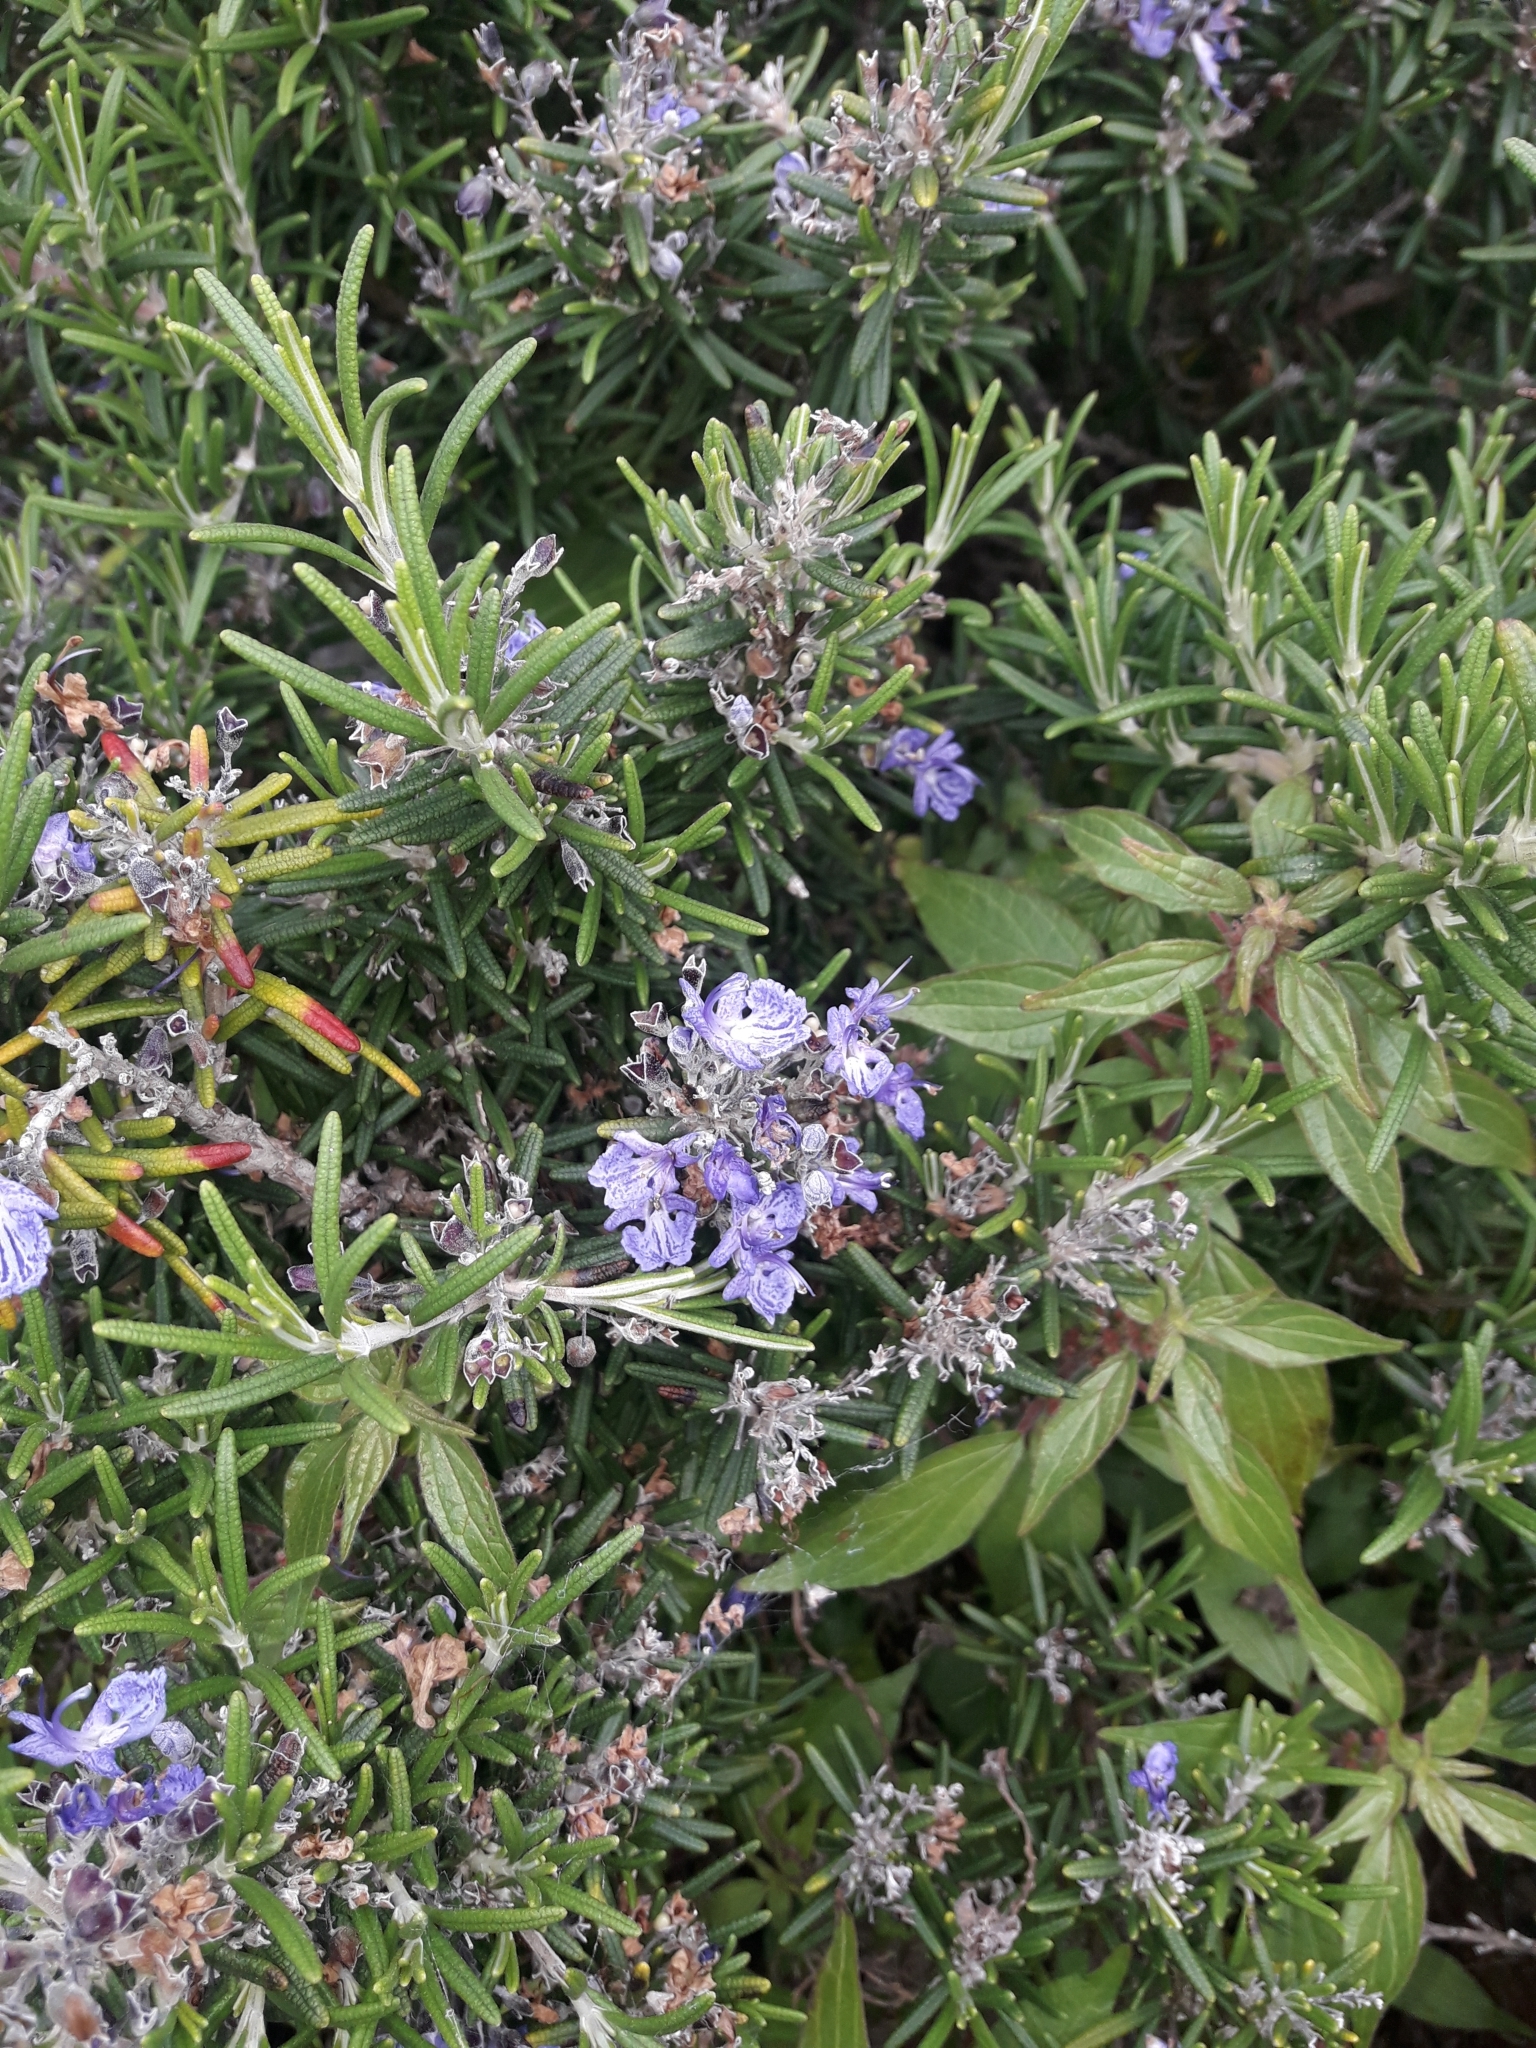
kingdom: Plantae
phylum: Tracheophyta
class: Magnoliopsida
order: Lamiales
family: Lamiaceae
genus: Salvia
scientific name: Salvia rosmarinus
